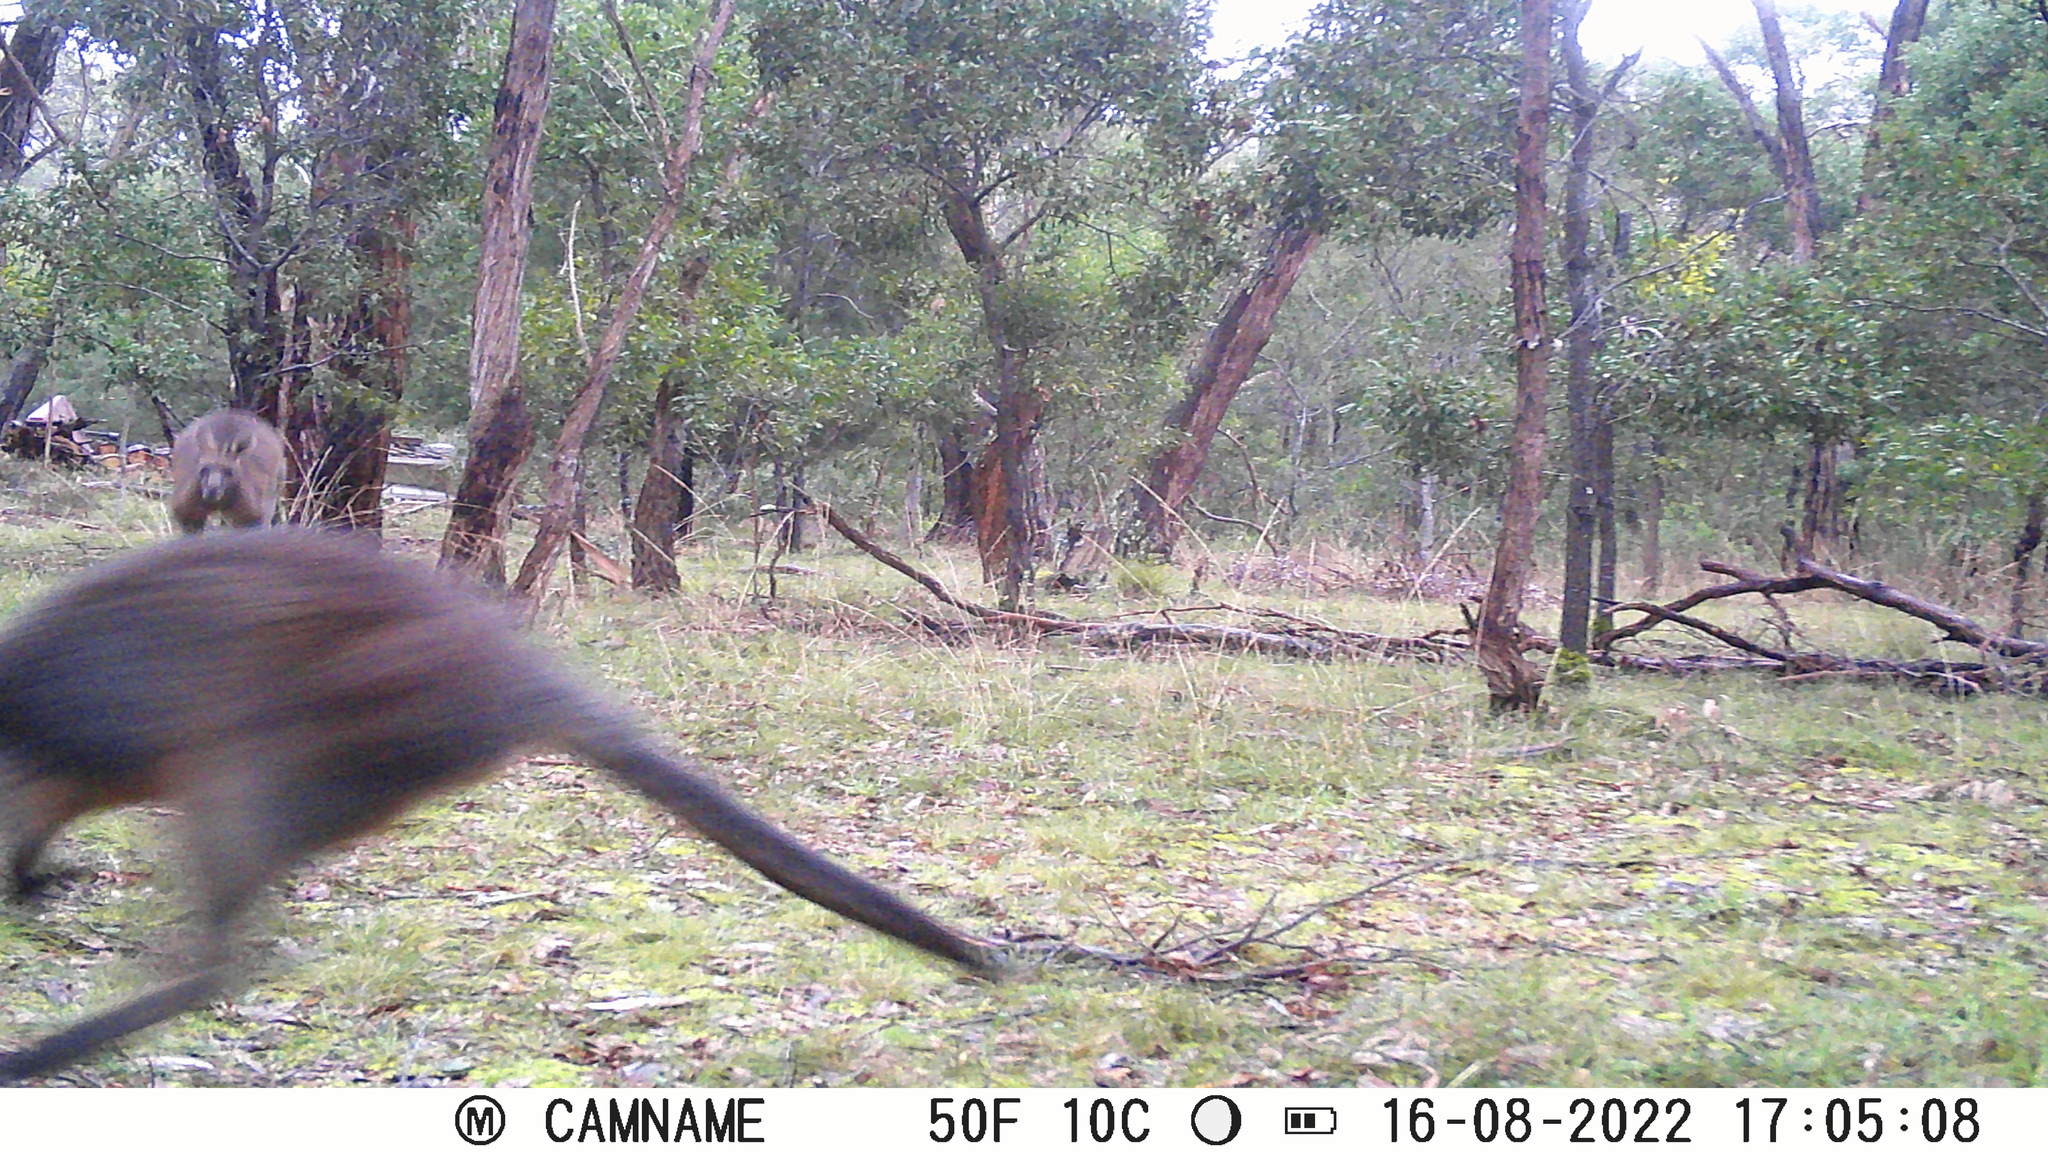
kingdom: Animalia
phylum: Chordata
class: Mammalia
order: Diprotodontia
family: Macropodidae
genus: Wallabia
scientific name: Wallabia bicolor
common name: Swamp wallaby
